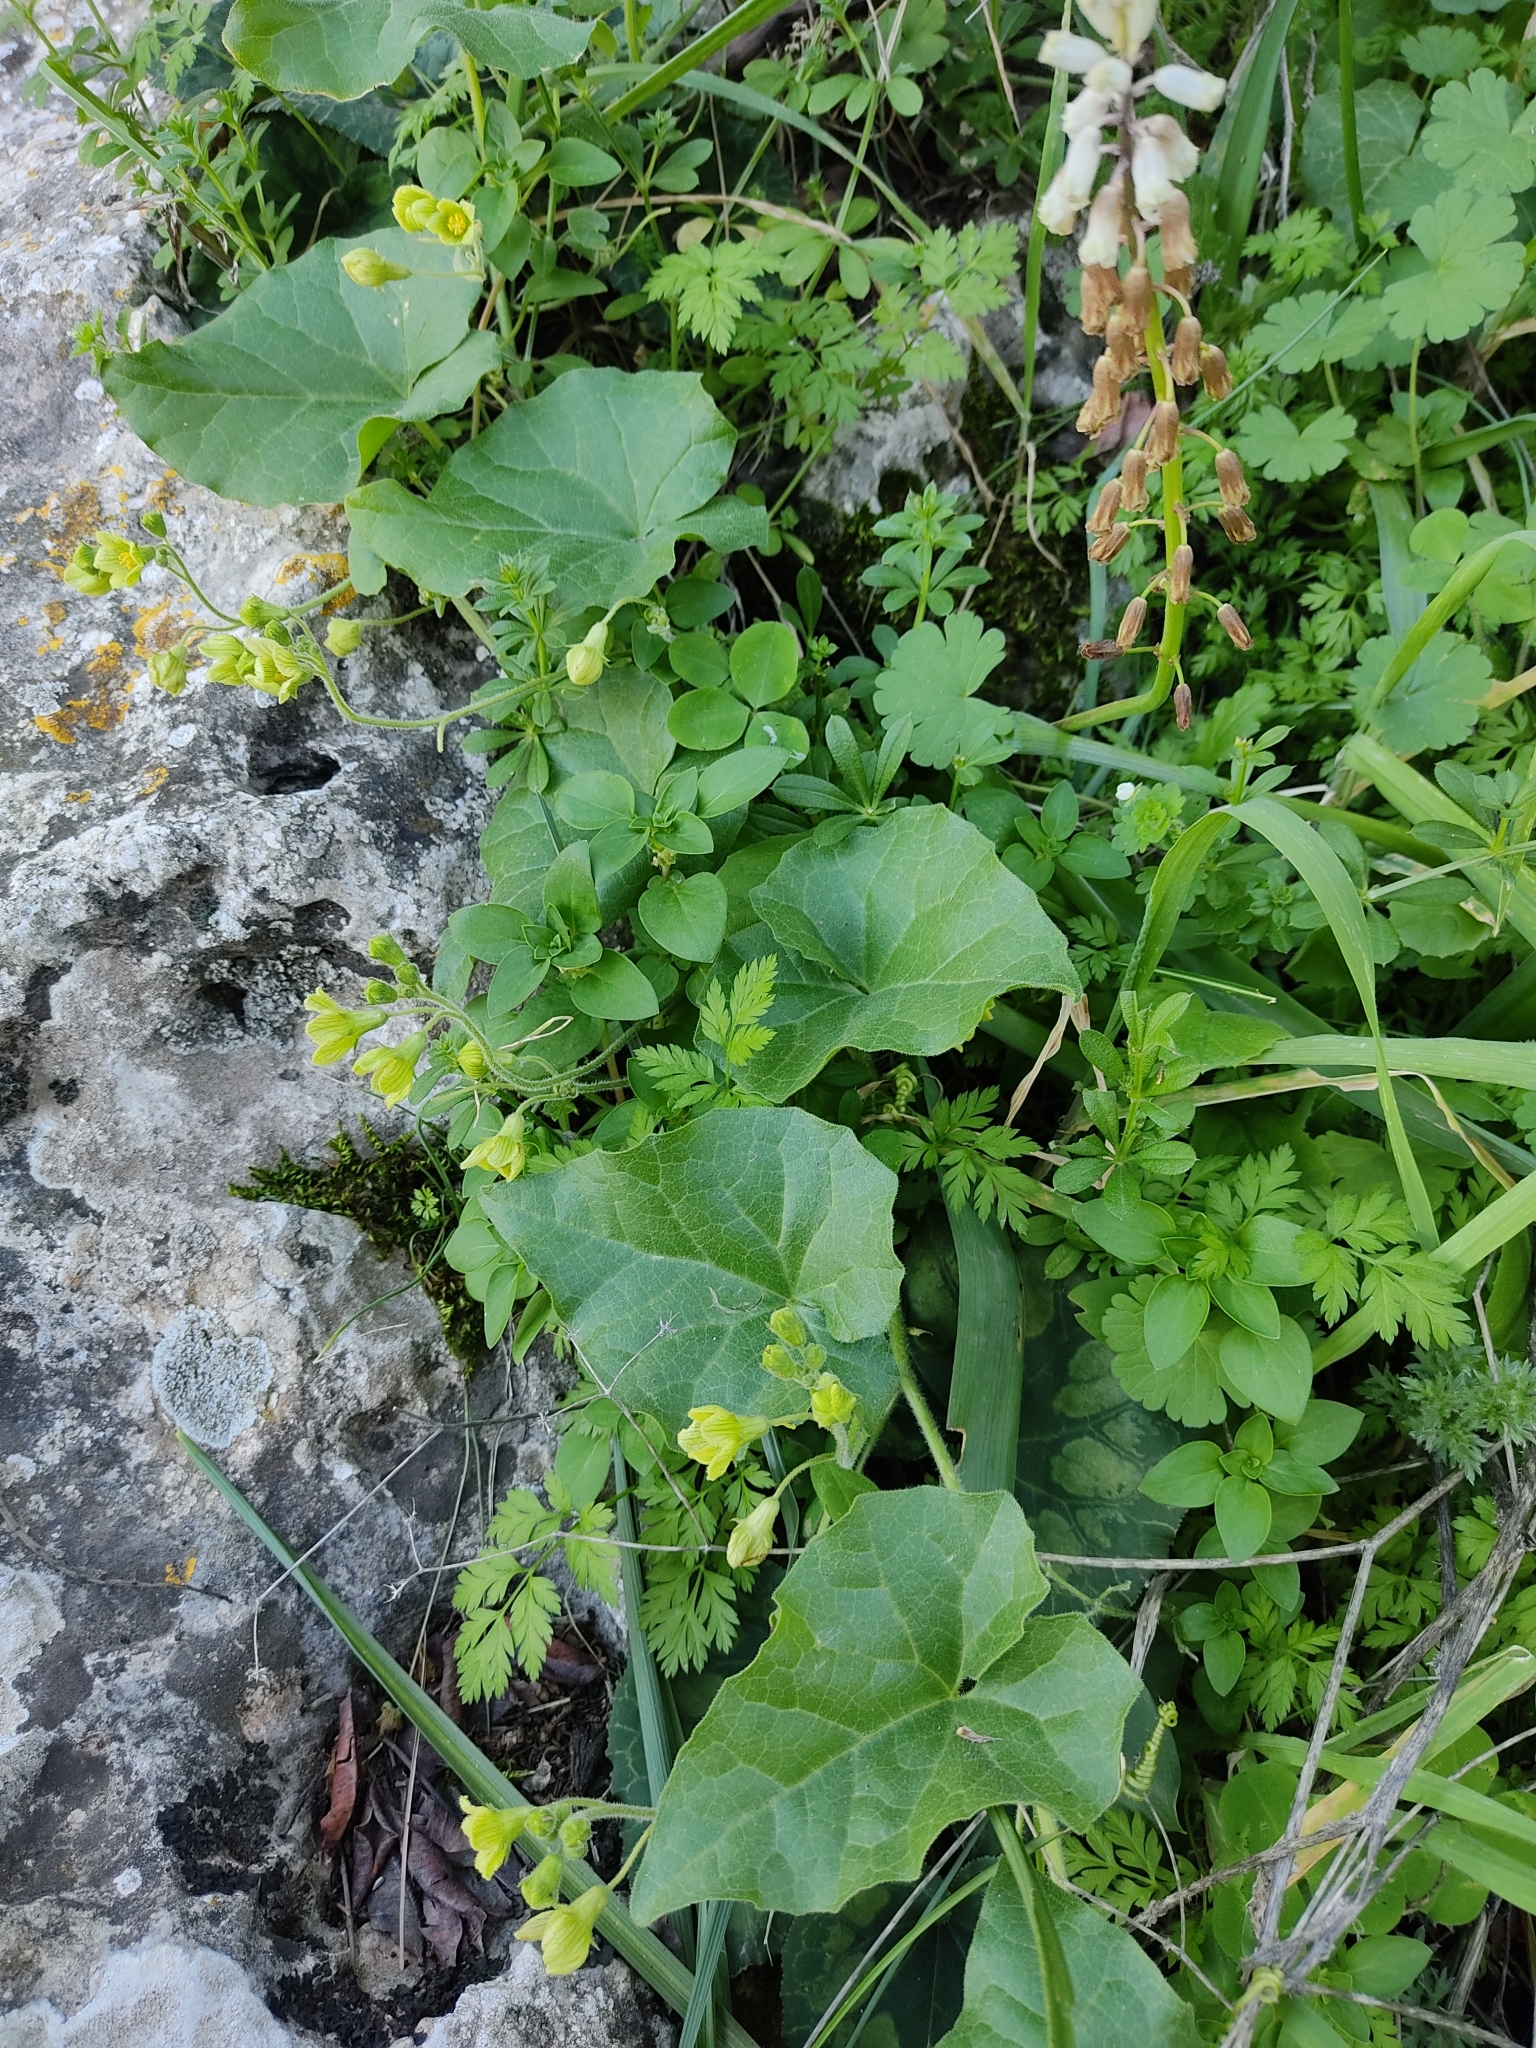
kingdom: Plantae
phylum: Tracheophyta
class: Magnoliopsida
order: Cucurbitales
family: Cucurbitaceae
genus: Bryonia
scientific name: Bryonia syriaca
